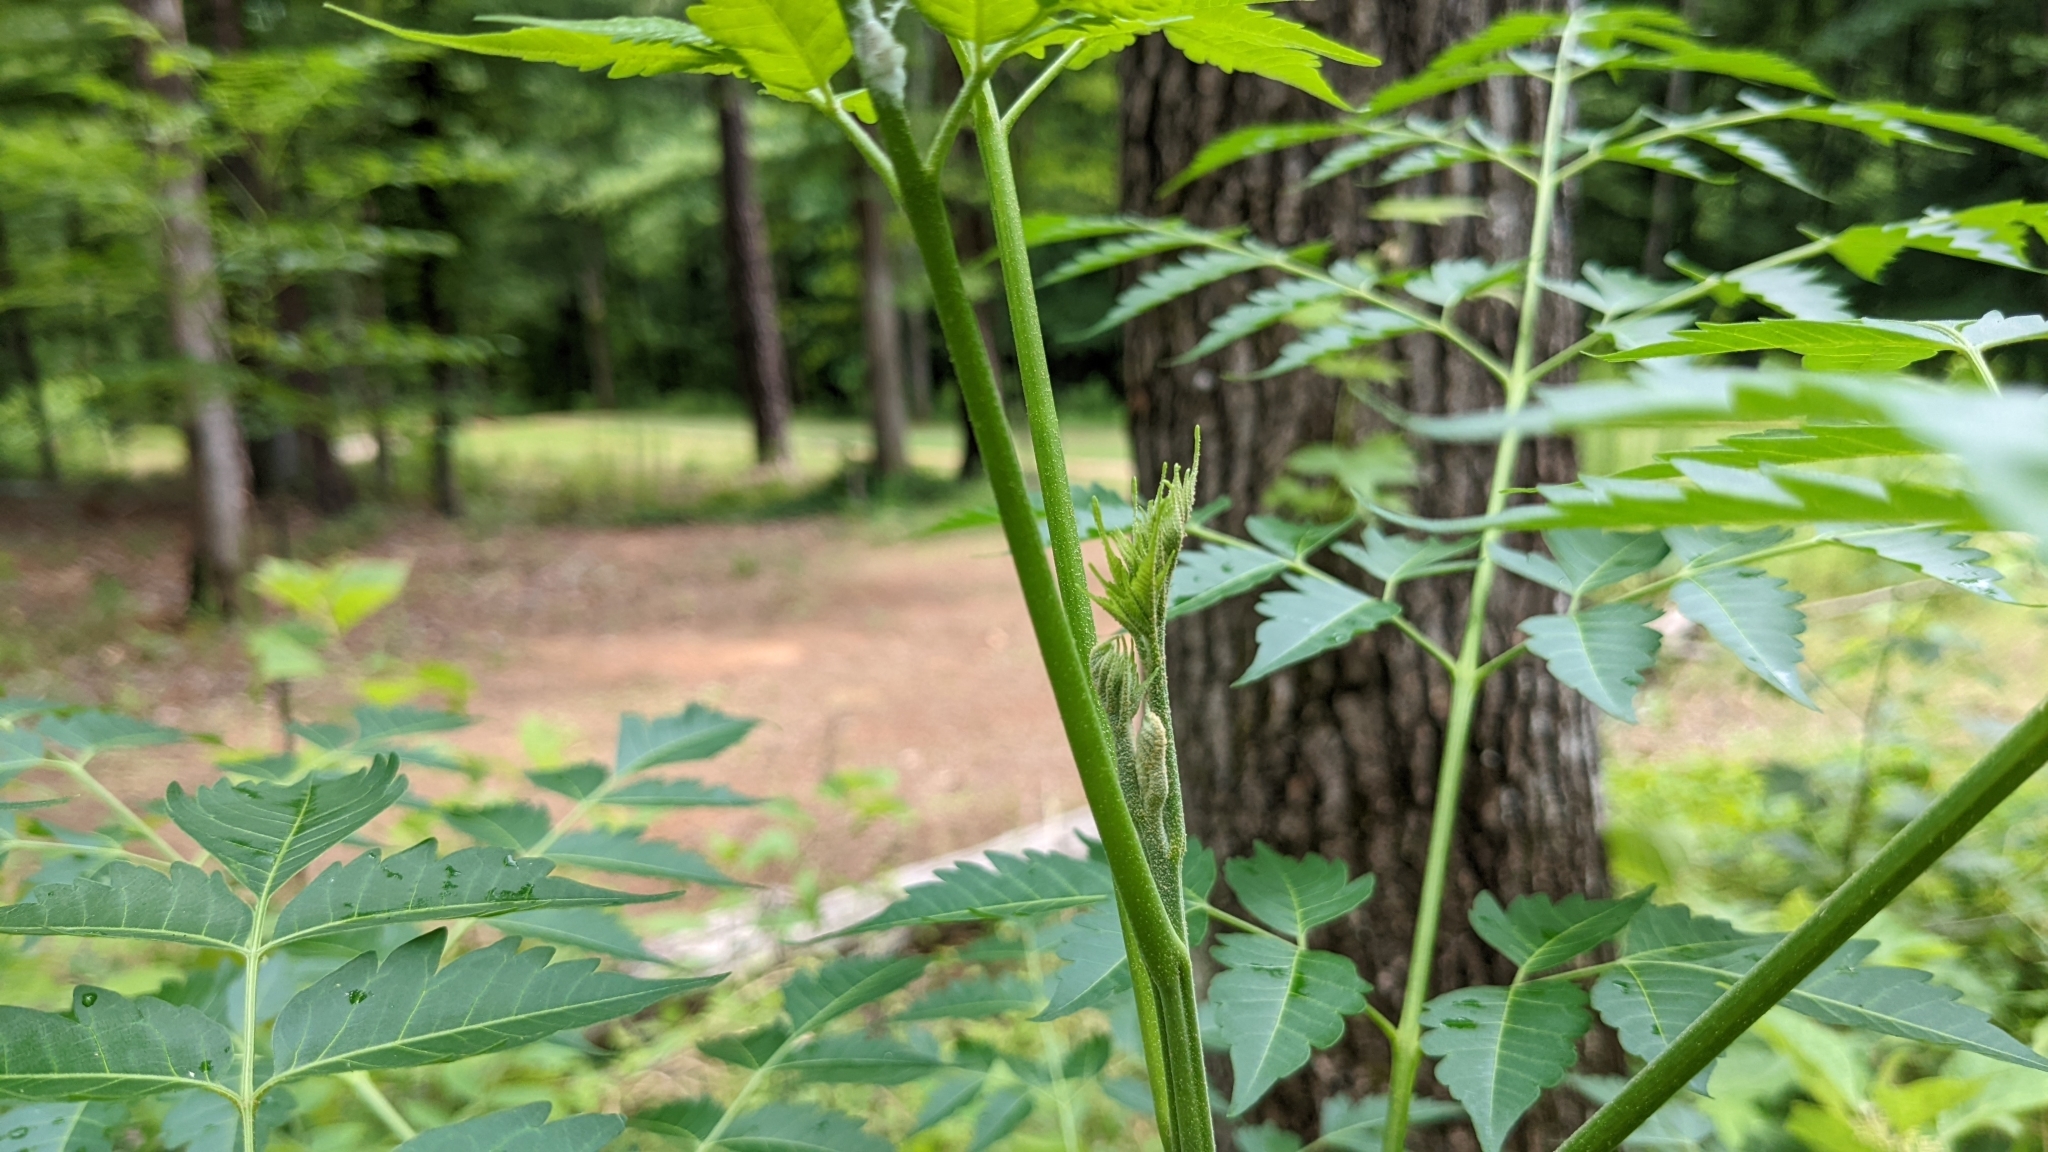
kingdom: Plantae
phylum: Tracheophyta
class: Magnoliopsida
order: Sapindales
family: Meliaceae
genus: Melia
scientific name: Melia azedarach
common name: Chinaberrytree
